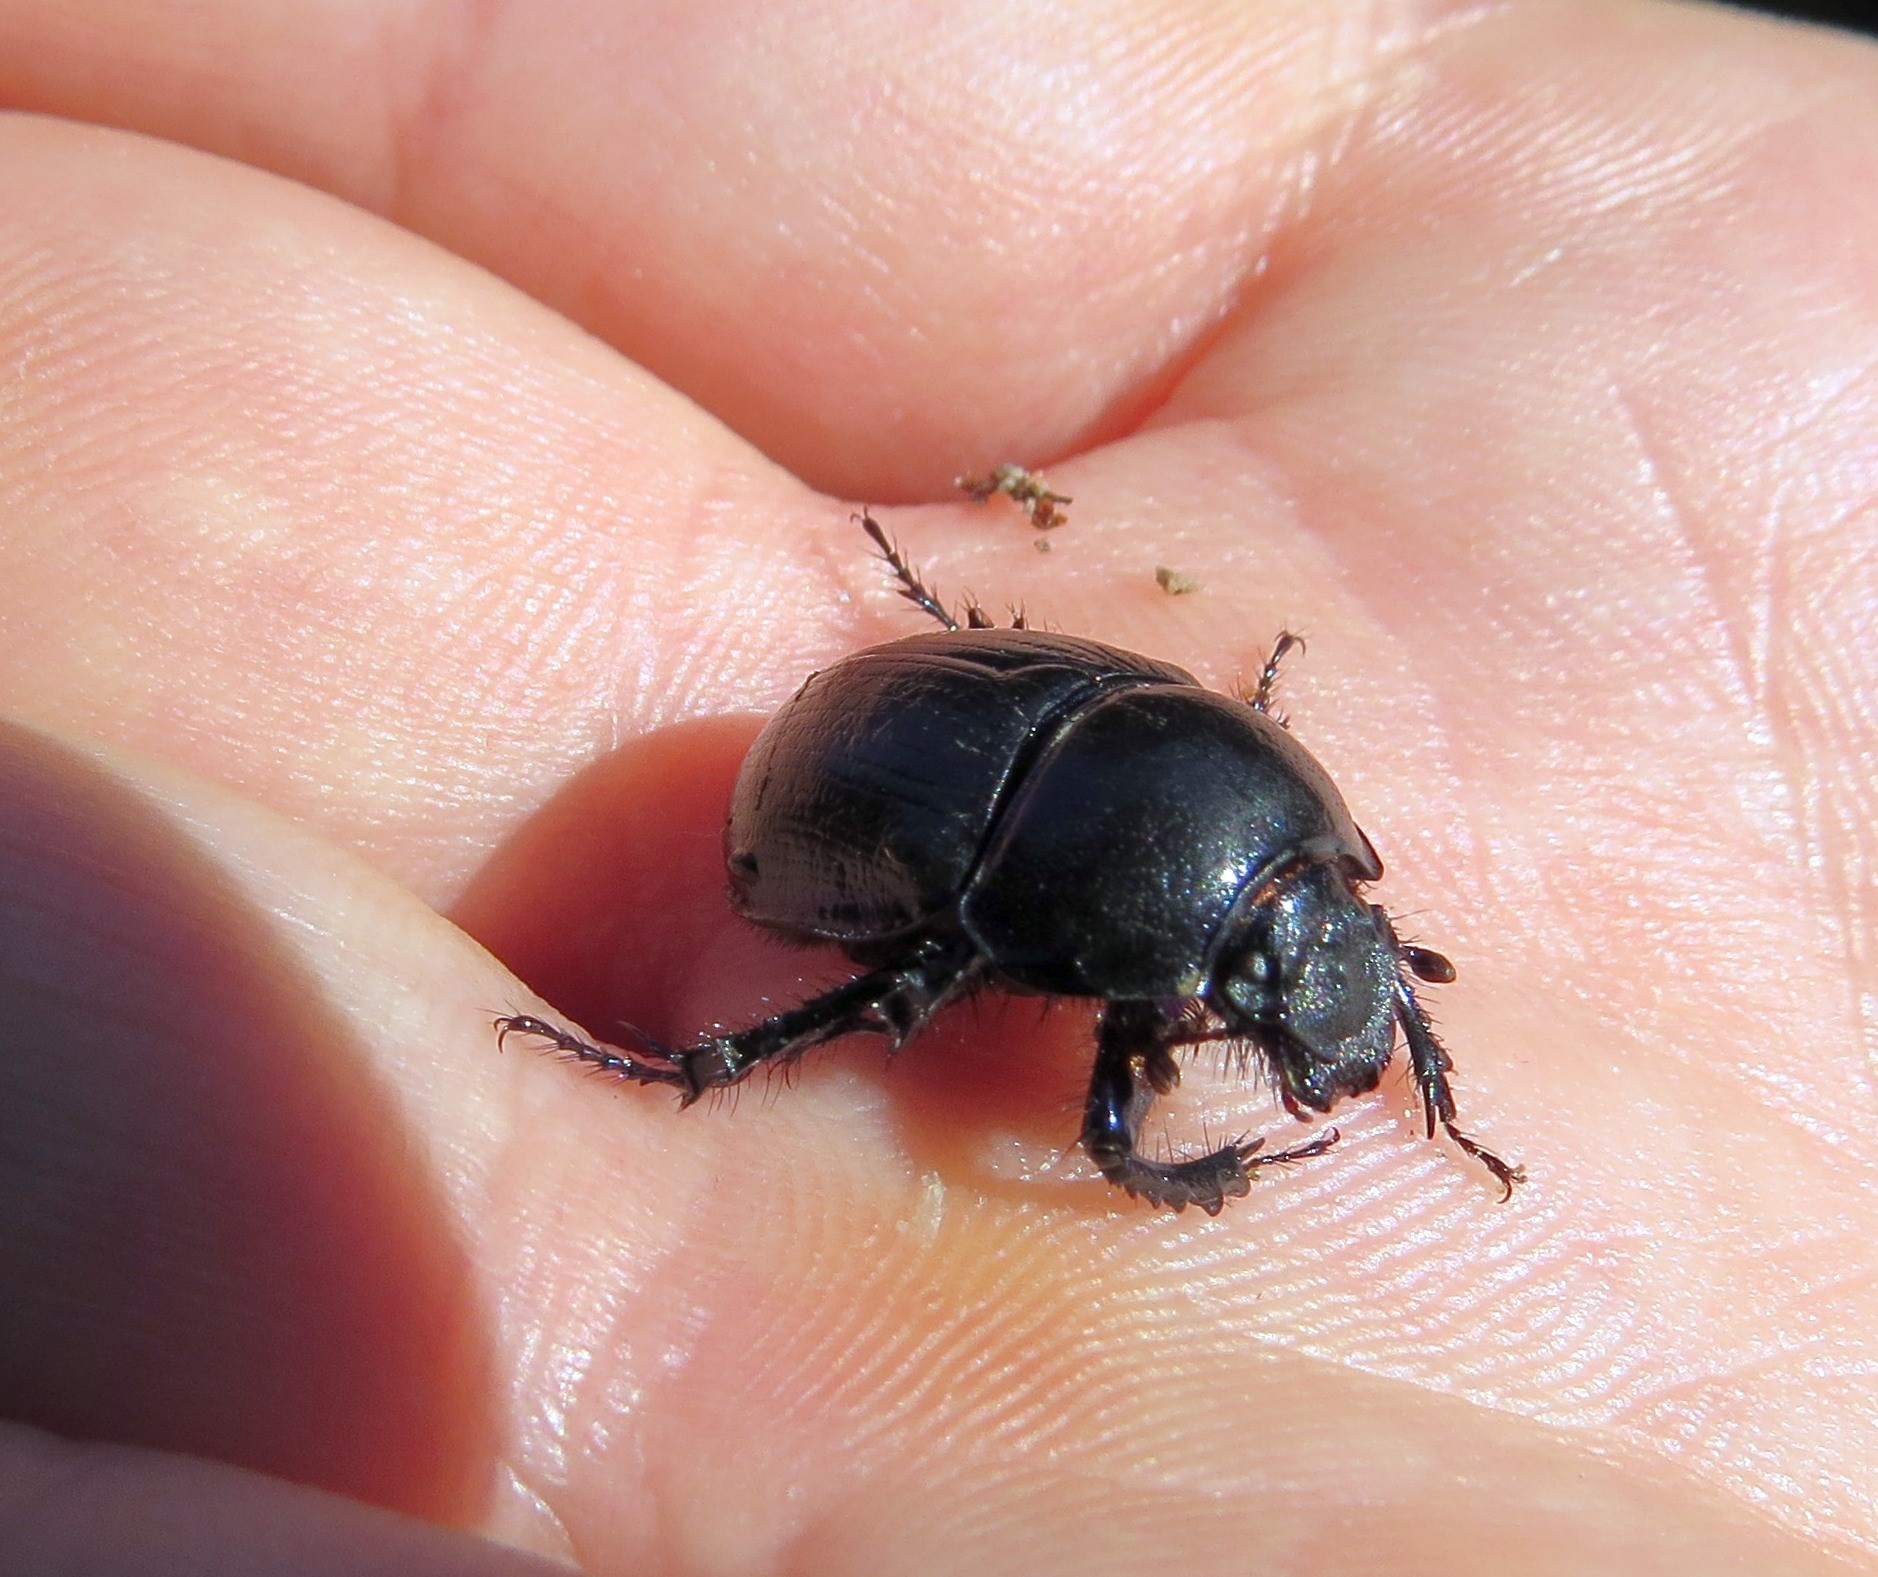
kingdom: Animalia
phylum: Arthropoda
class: Insecta
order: Coleoptera
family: Geotrupidae
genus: Anoplotrupes
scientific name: Anoplotrupes stercorosus
